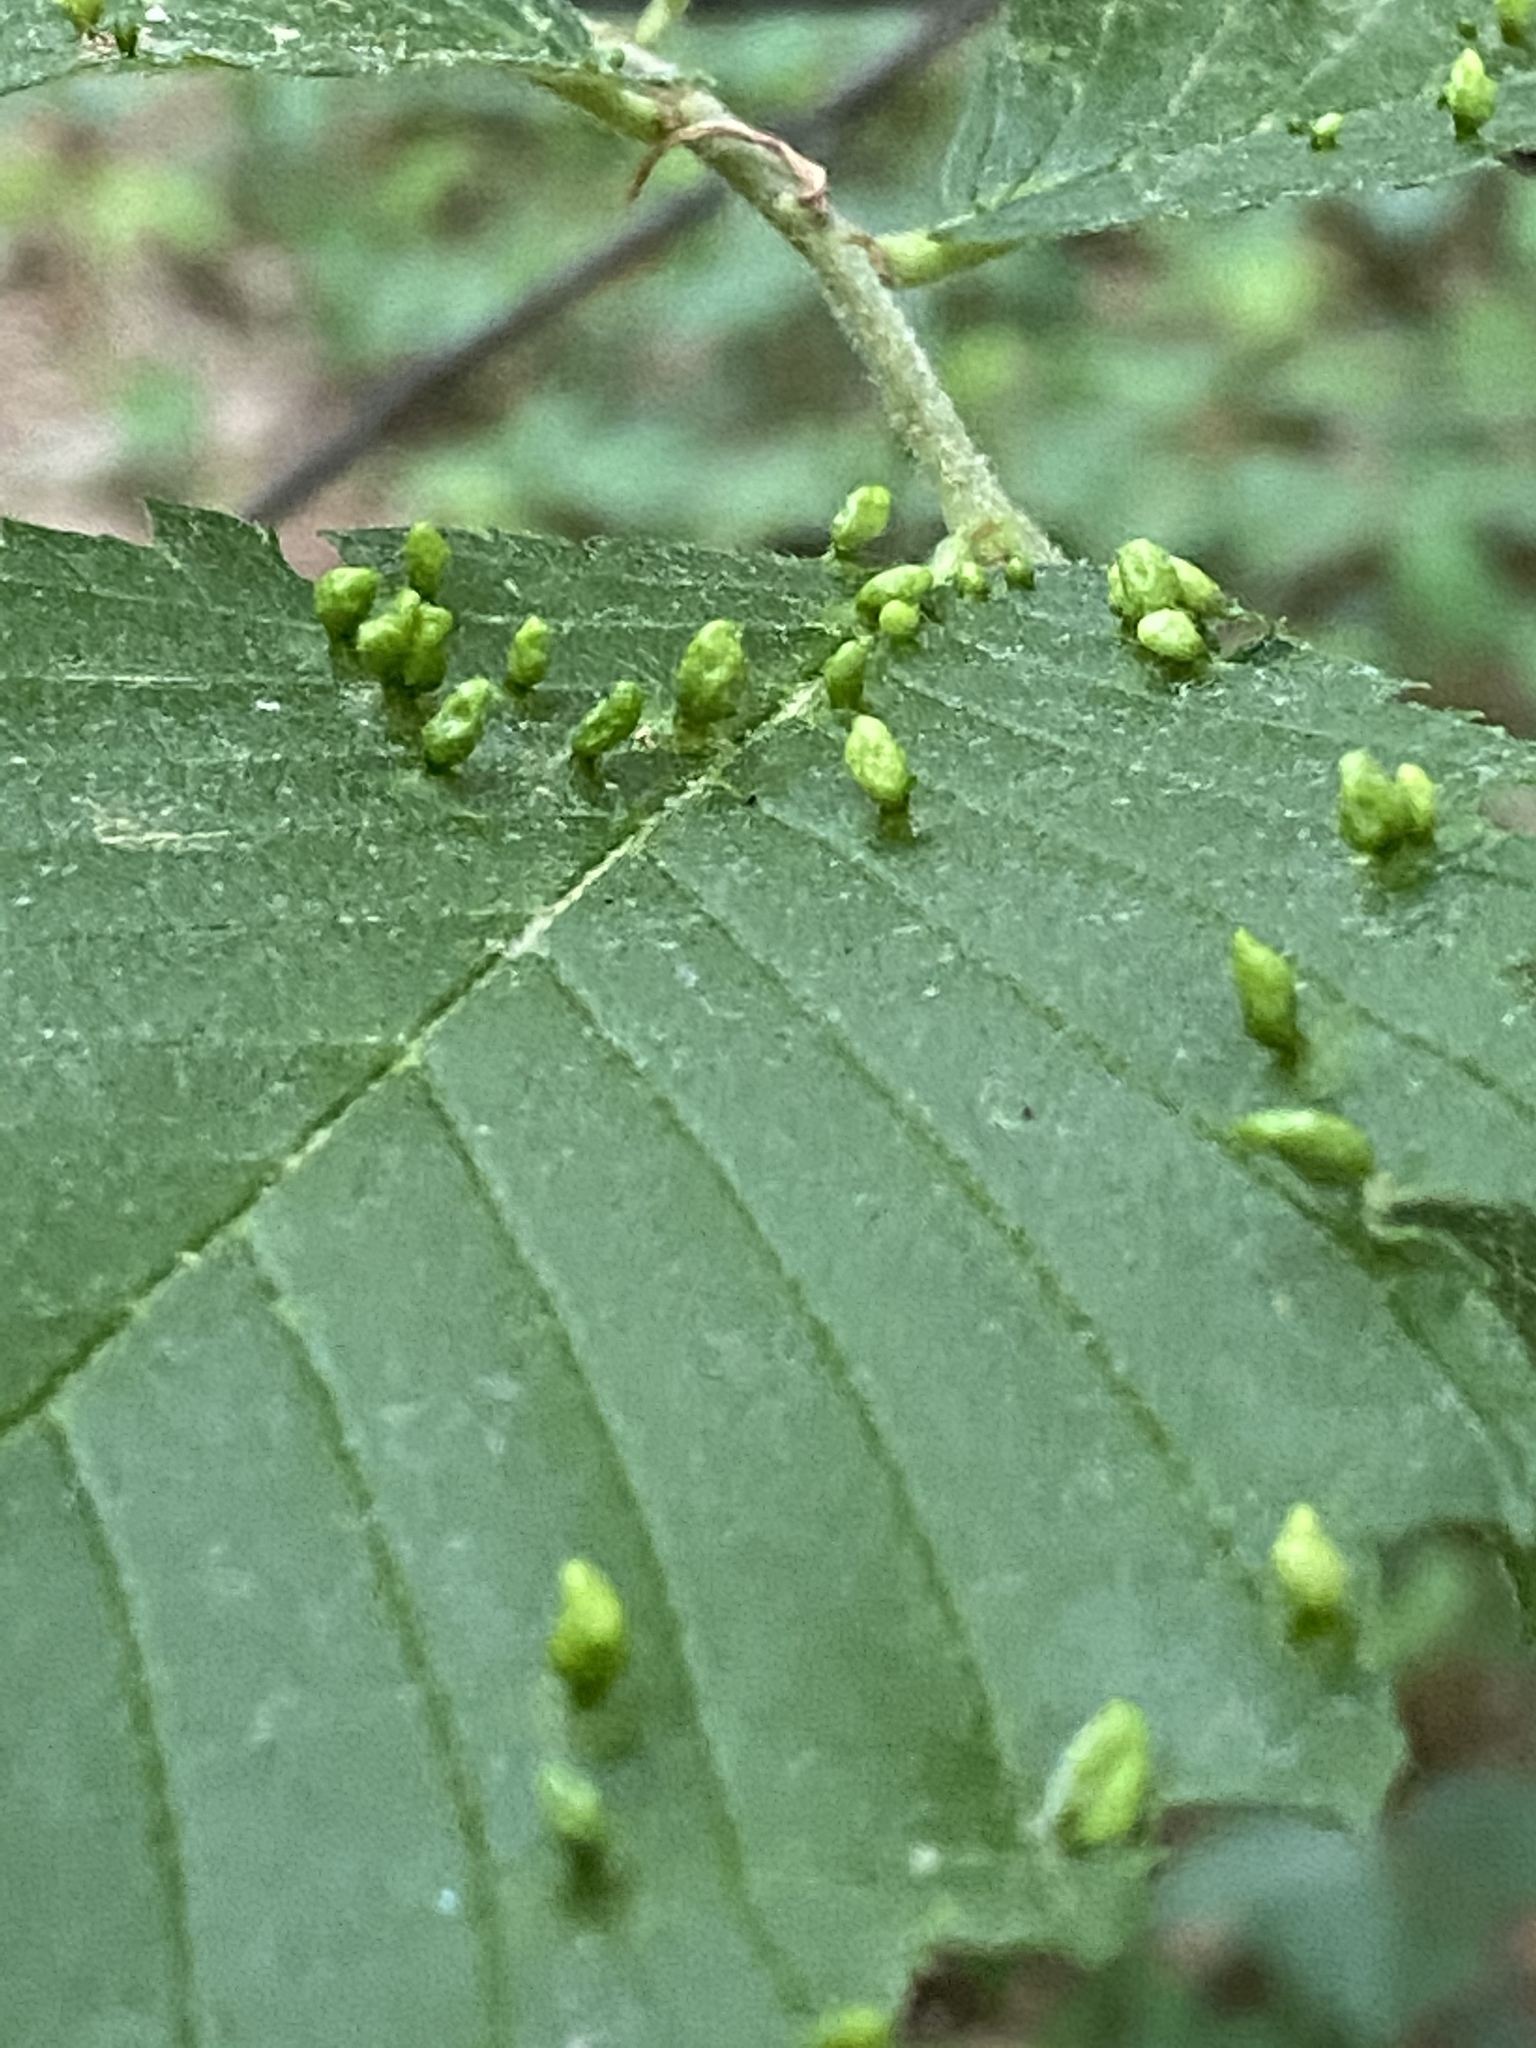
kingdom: Animalia
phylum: Arthropoda
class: Arachnida
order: Trombidiformes
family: Eriophyidae
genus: Aceria
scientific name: Aceria
